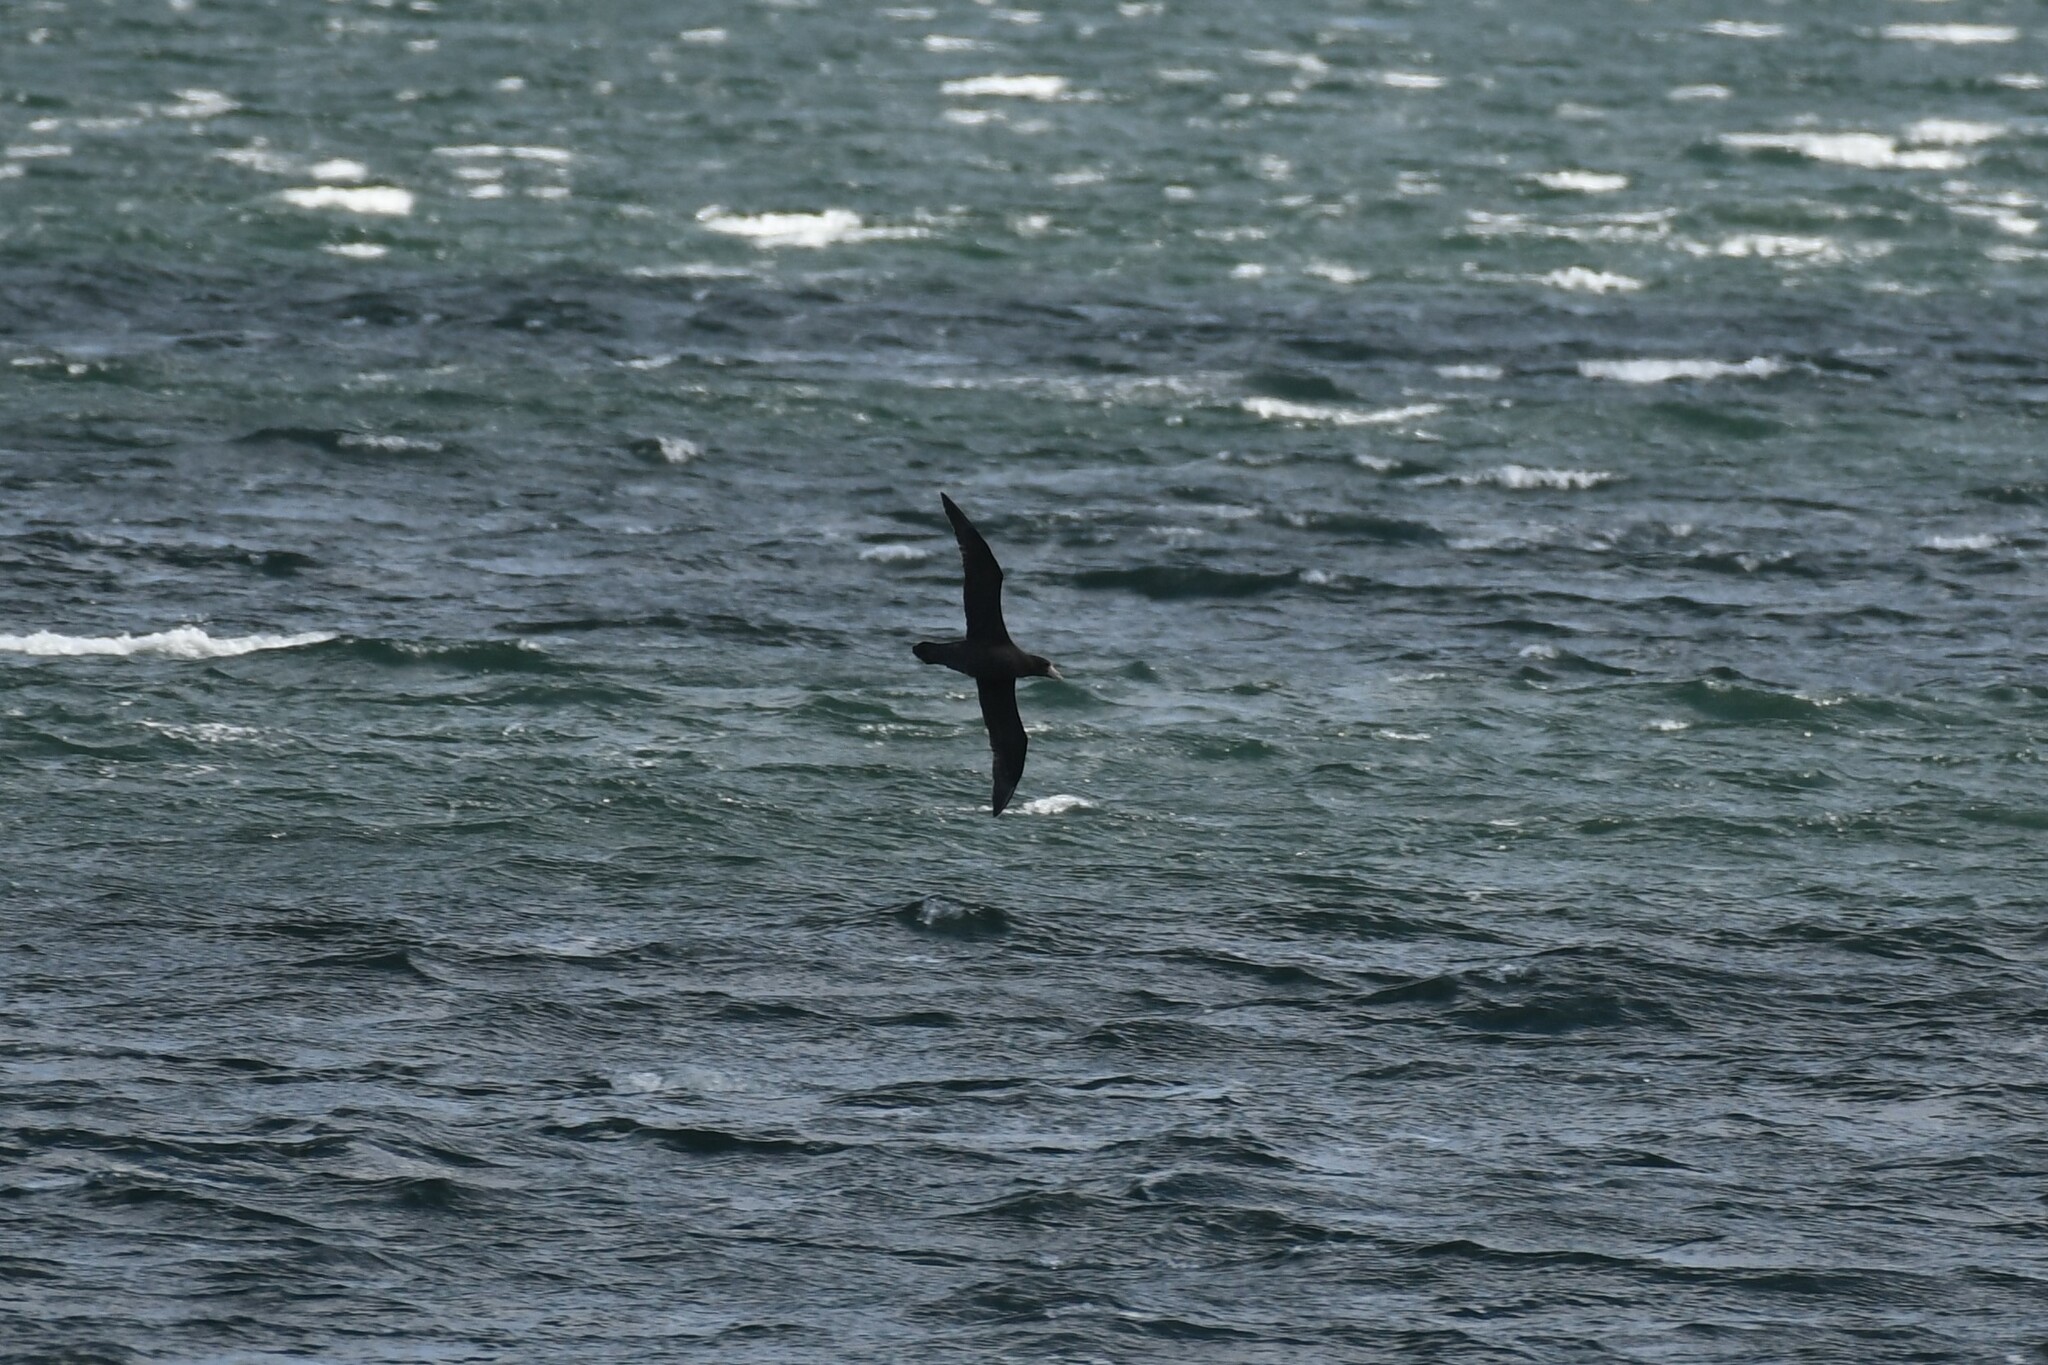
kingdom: Animalia
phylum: Chordata
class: Aves
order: Procellariiformes
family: Procellariidae
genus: Macronectes
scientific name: Macronectes giganteus
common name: Southern giant petrel
